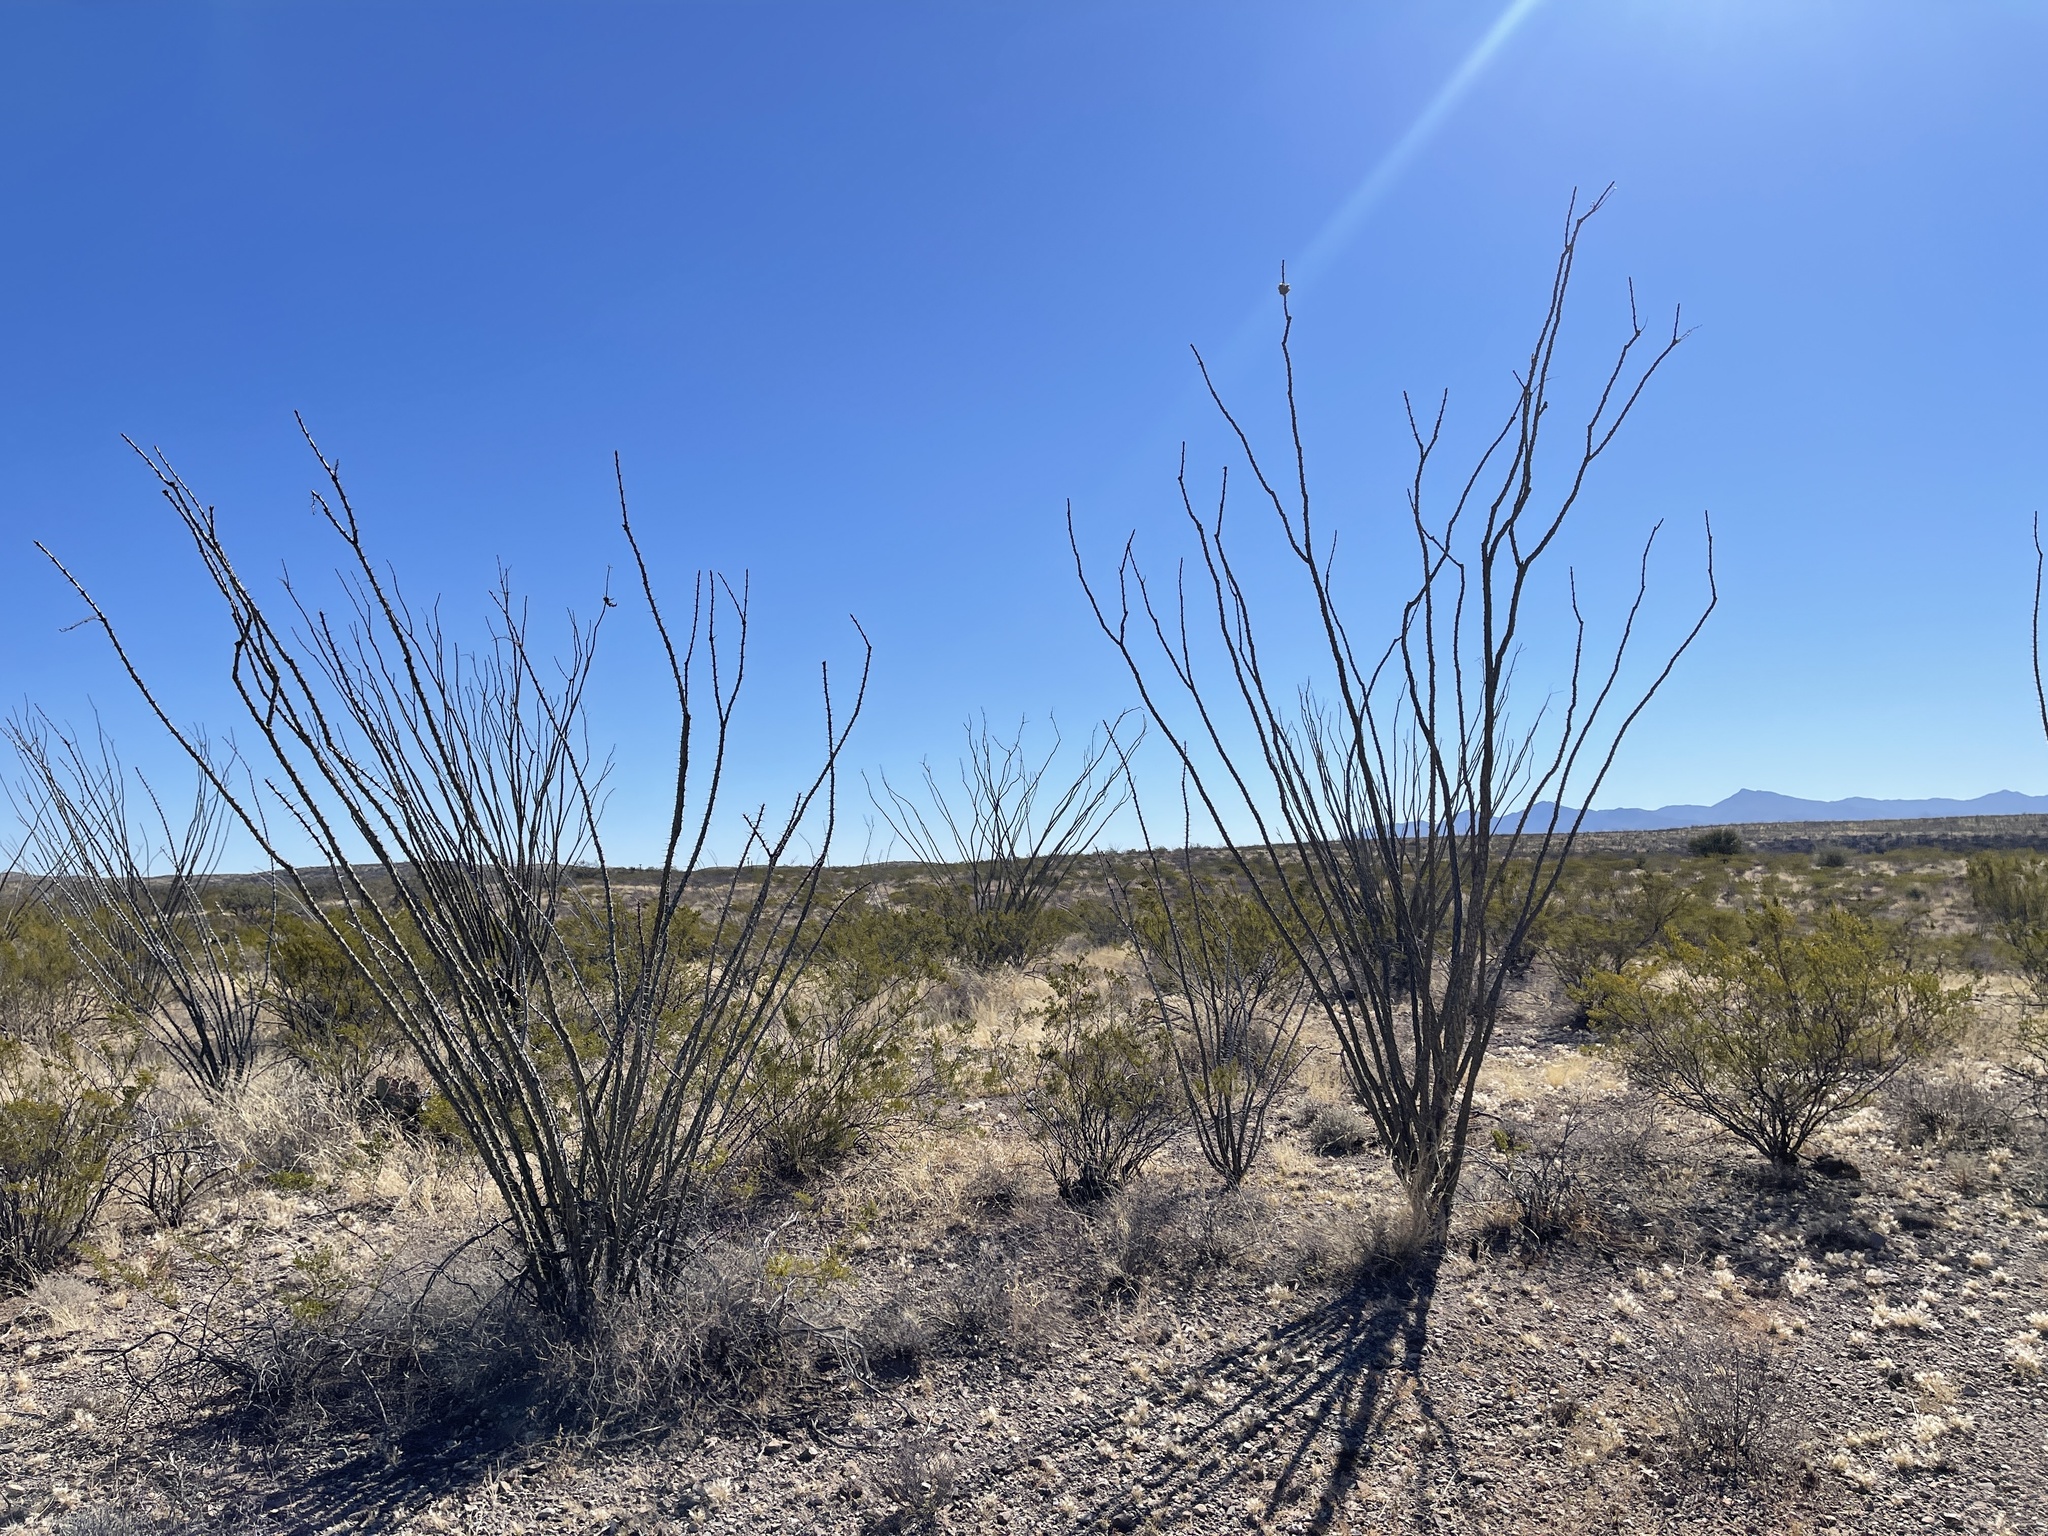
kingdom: Plantae
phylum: Tracheophyta
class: Magnoliopsida
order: Ericales
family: Fouquieriaceae
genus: Fouquieria
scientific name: Fouquieria splendens
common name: Vine-cactus
